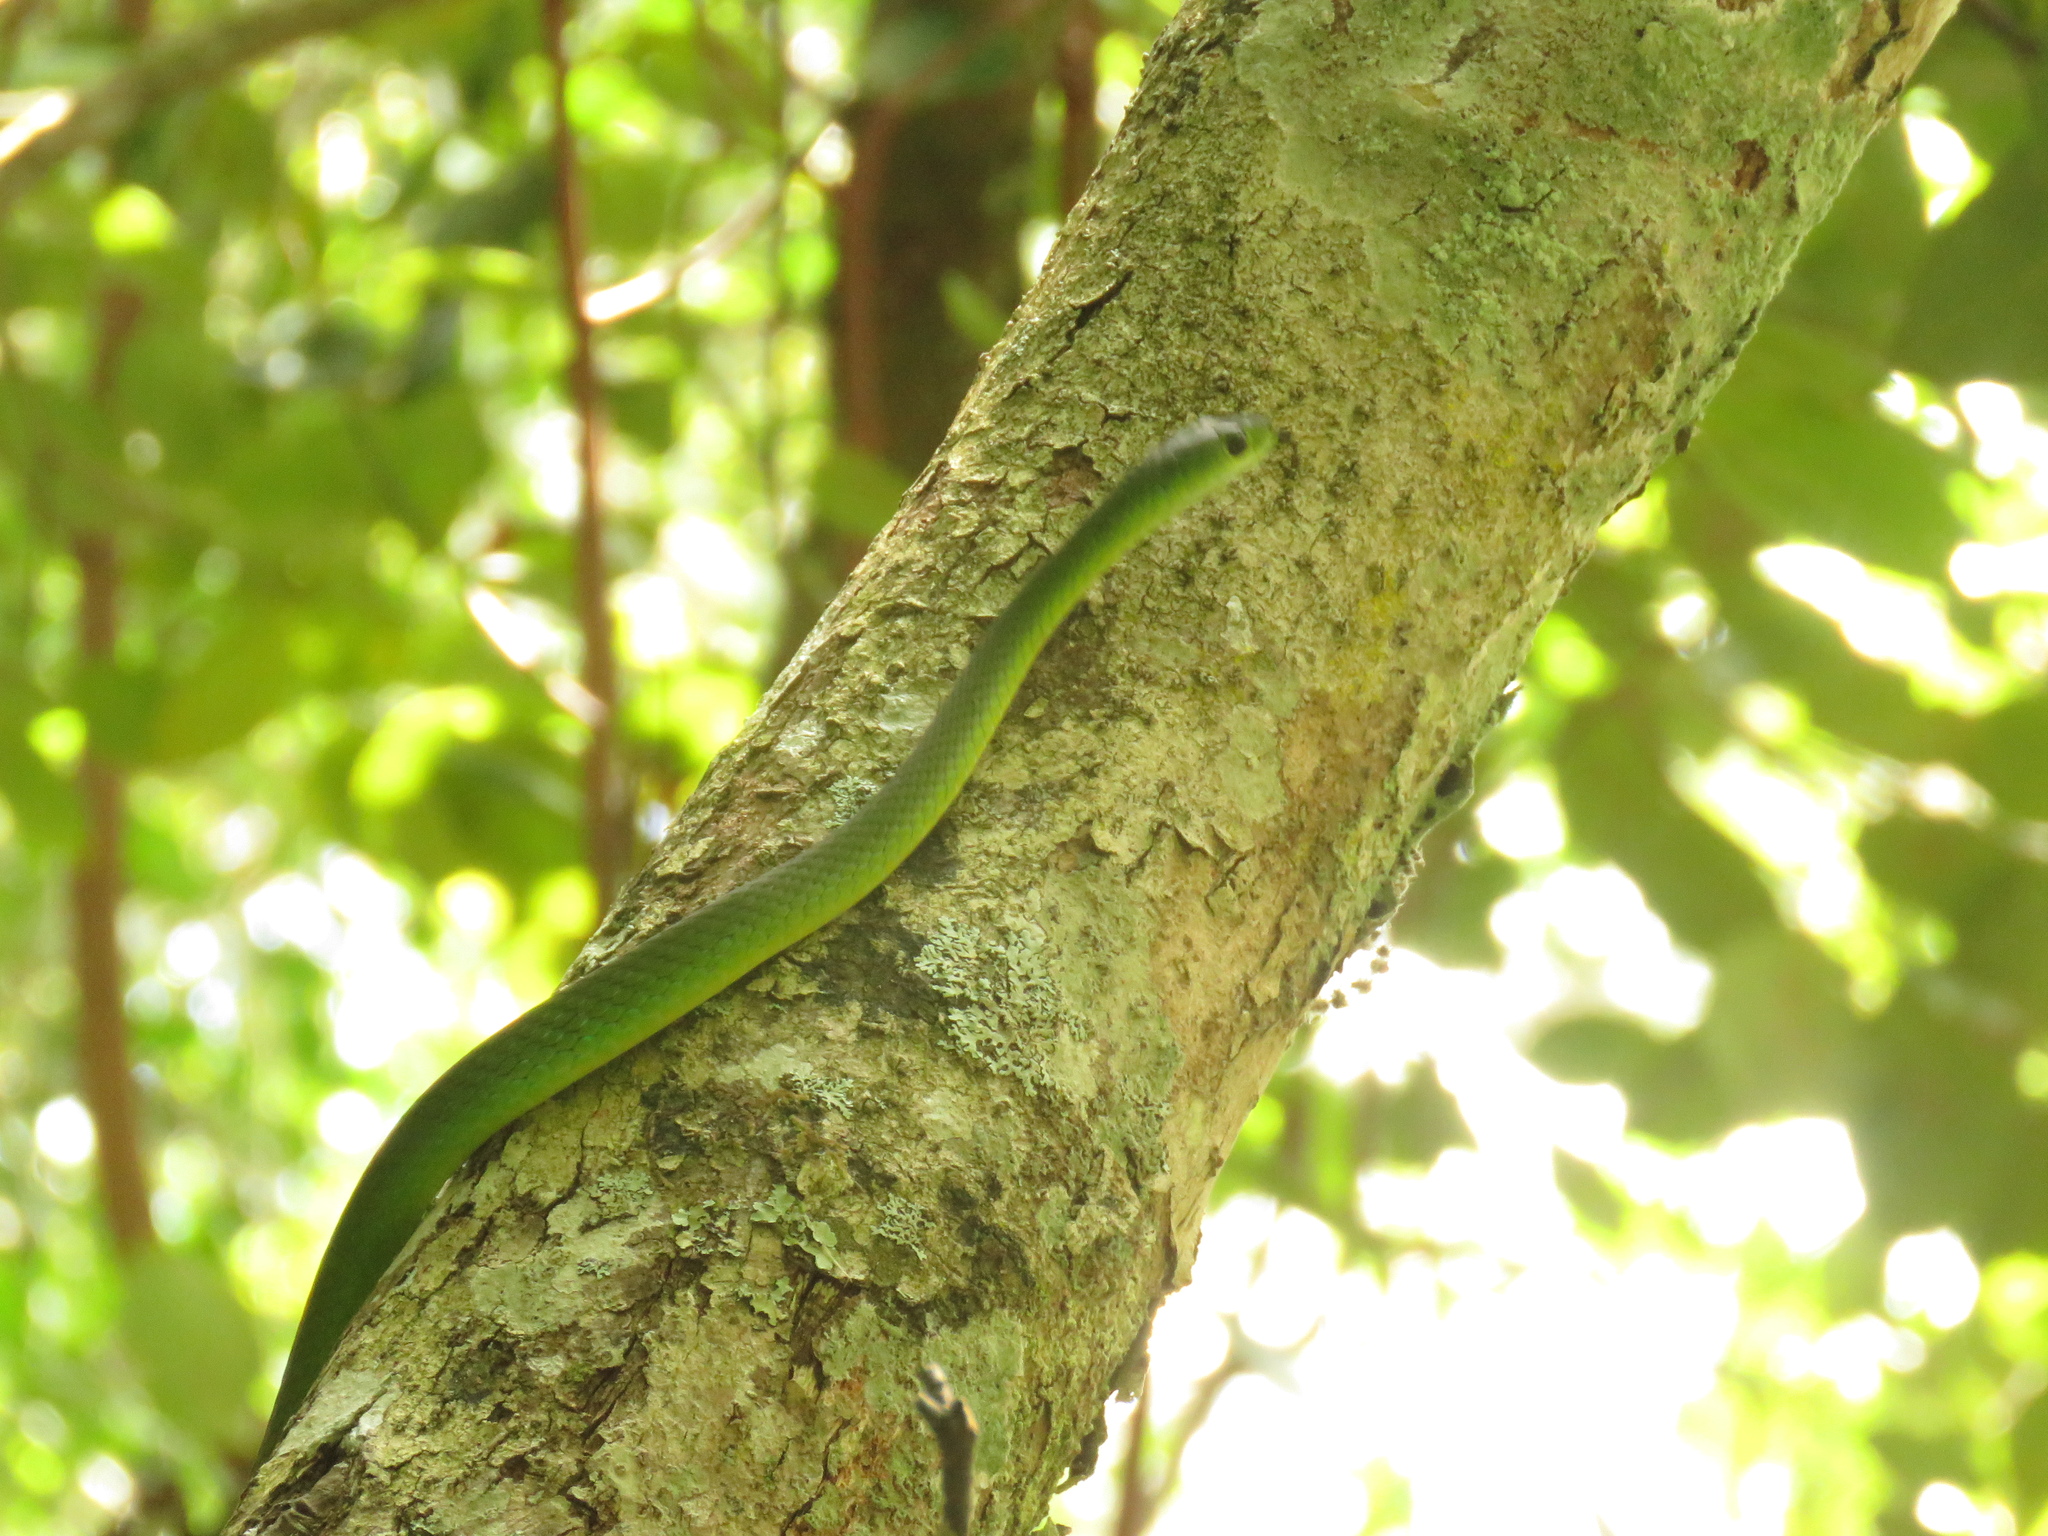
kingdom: Animalia
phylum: Chordata
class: Squamata
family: Colubridae
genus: Philothamnus
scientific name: Philothamnus occidentalis
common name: Western natal green snake
